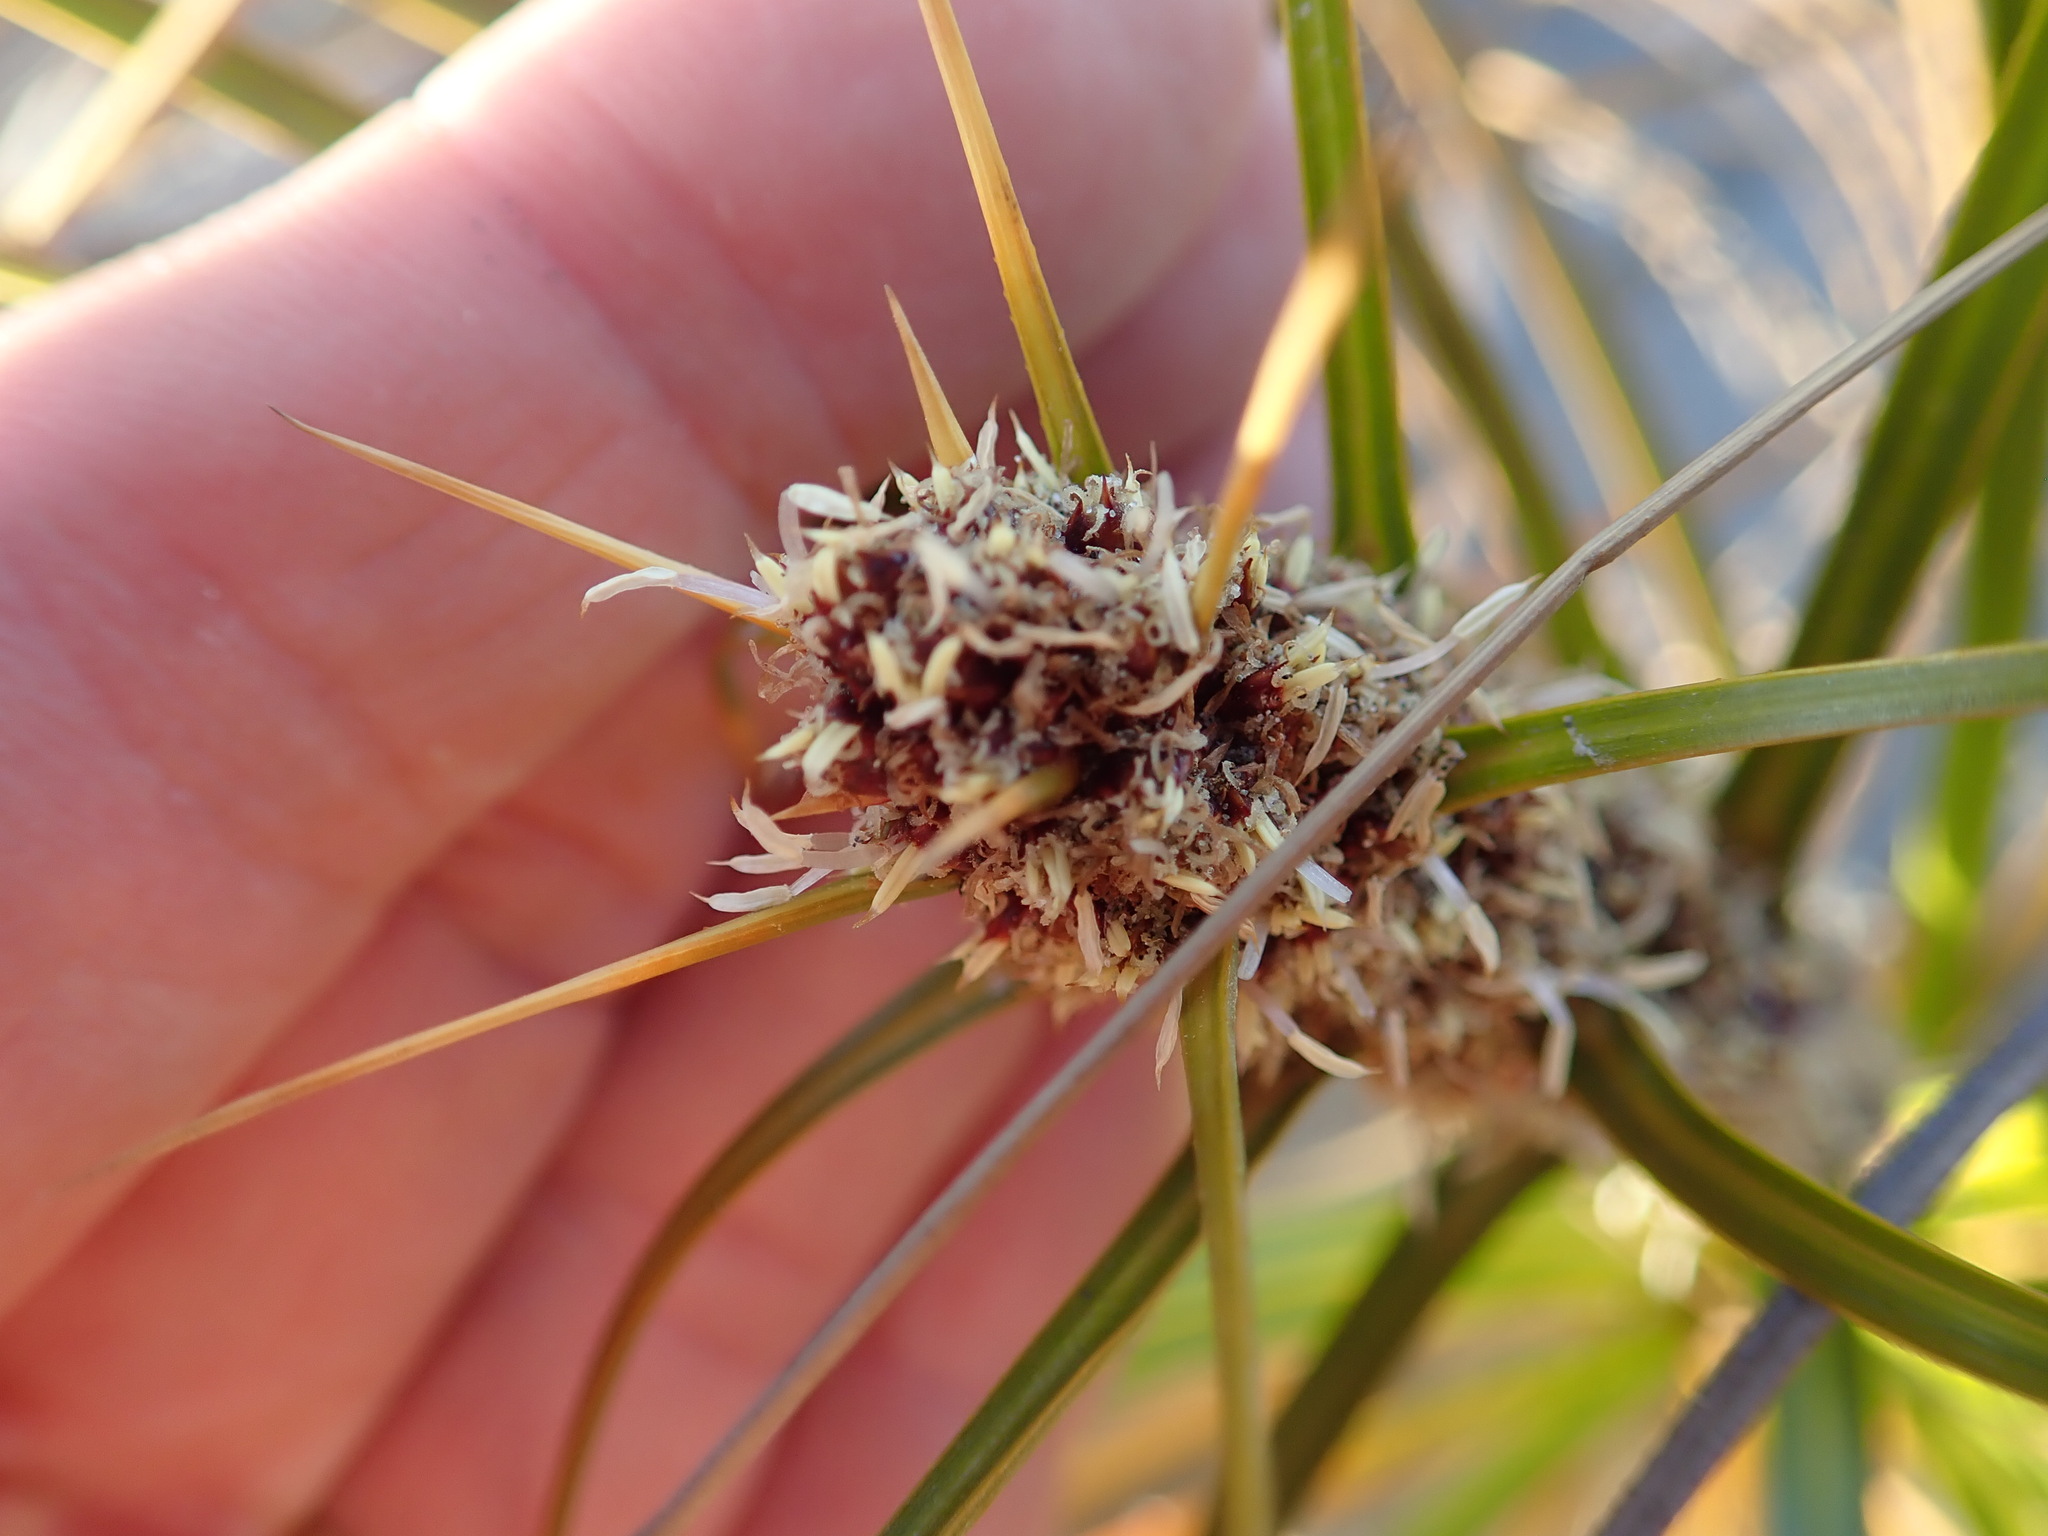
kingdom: Plantae
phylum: Tracheophyta
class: Liliopsida
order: Poales
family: Cyperaceae
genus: Ficinia
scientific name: Ficinia spiralis
